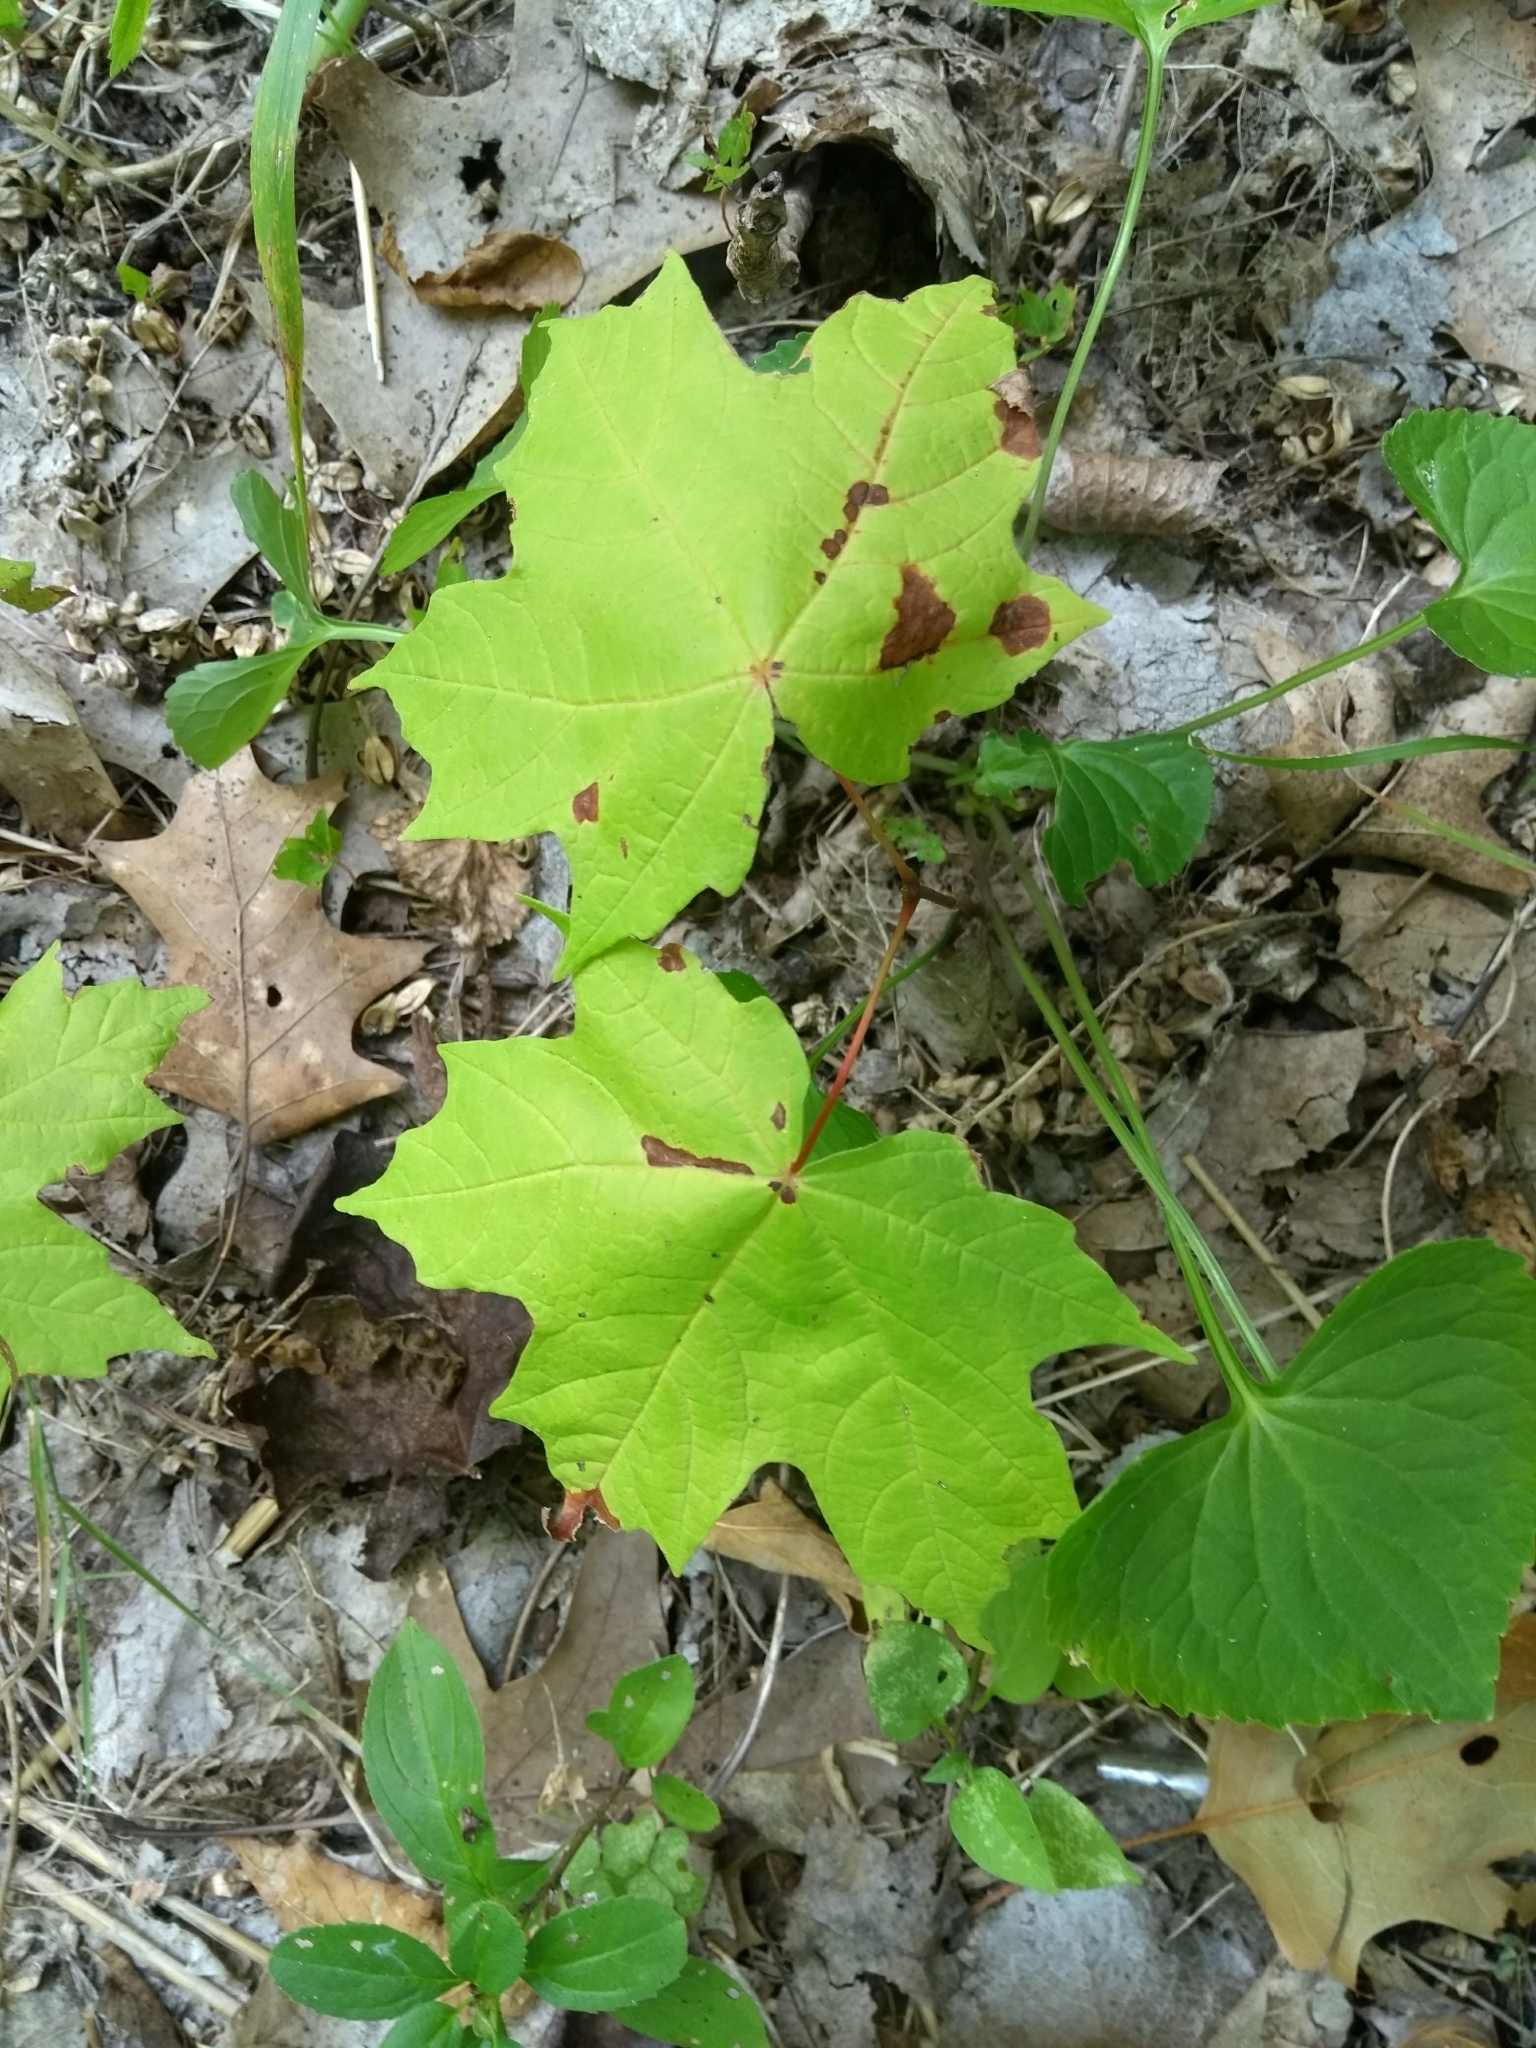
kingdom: Plantae
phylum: Tracheophyta
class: Magnoliopsida
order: Sapindales
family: Sapindaceae
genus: Acer
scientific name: Acer saccharum
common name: Sugar maple
